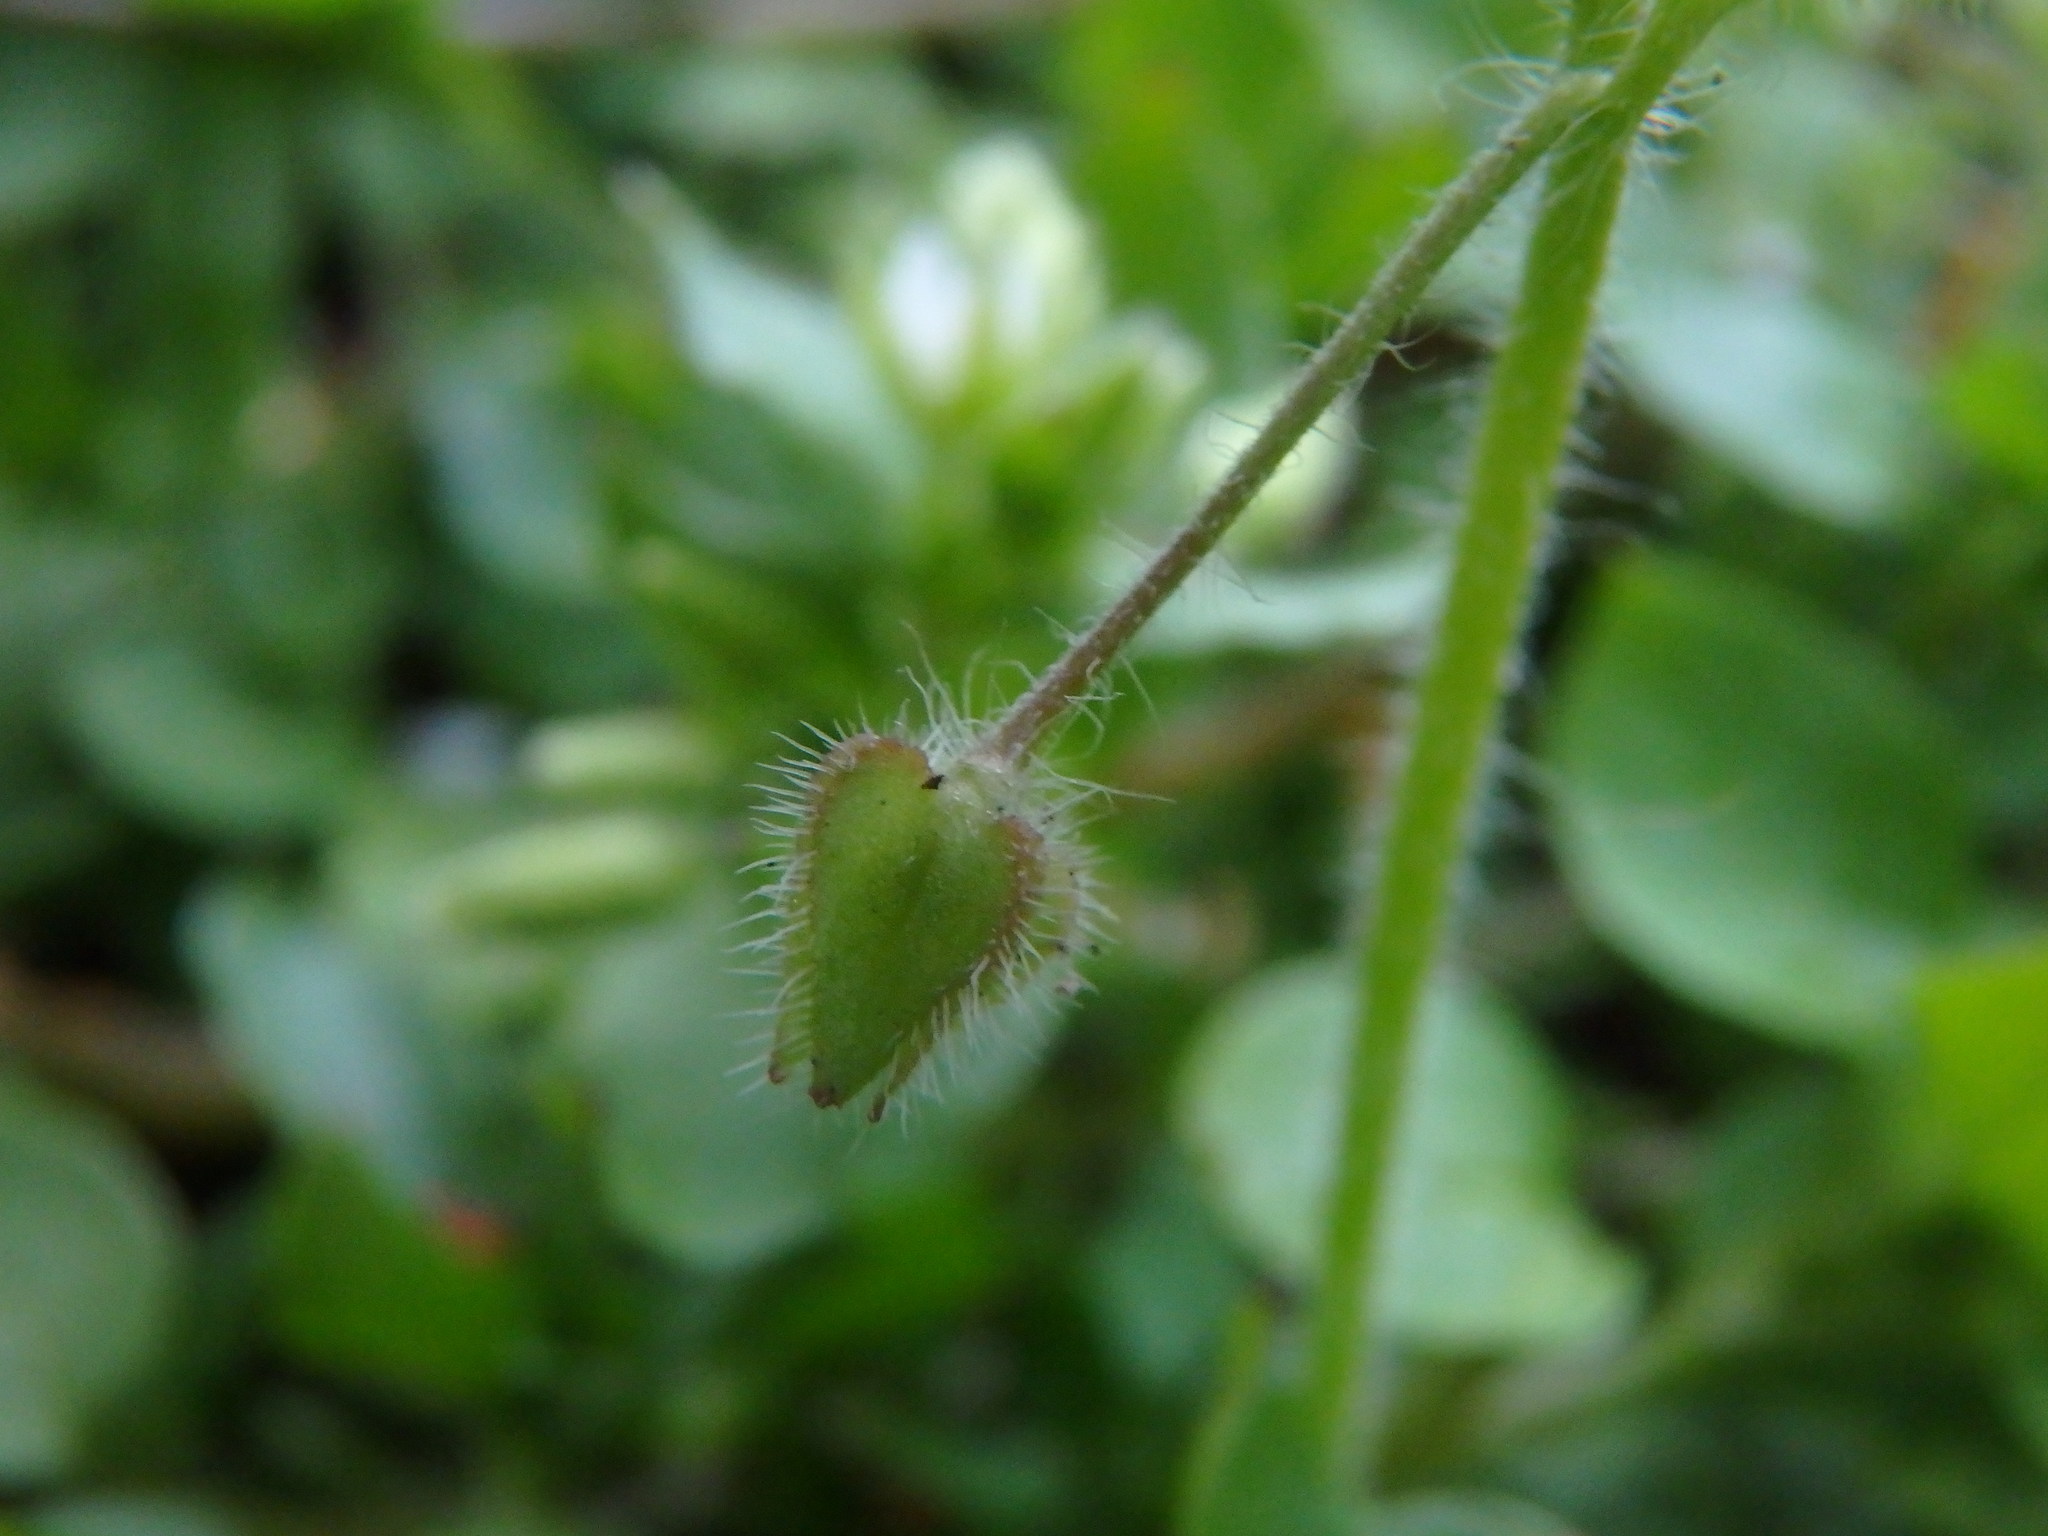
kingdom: Plantae
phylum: Tracheophyta
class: Magnoliopsida
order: Lamiales
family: Plantaginaceae
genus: Veronica
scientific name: Veronica sublobata
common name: False ivy-leaved speedwell
